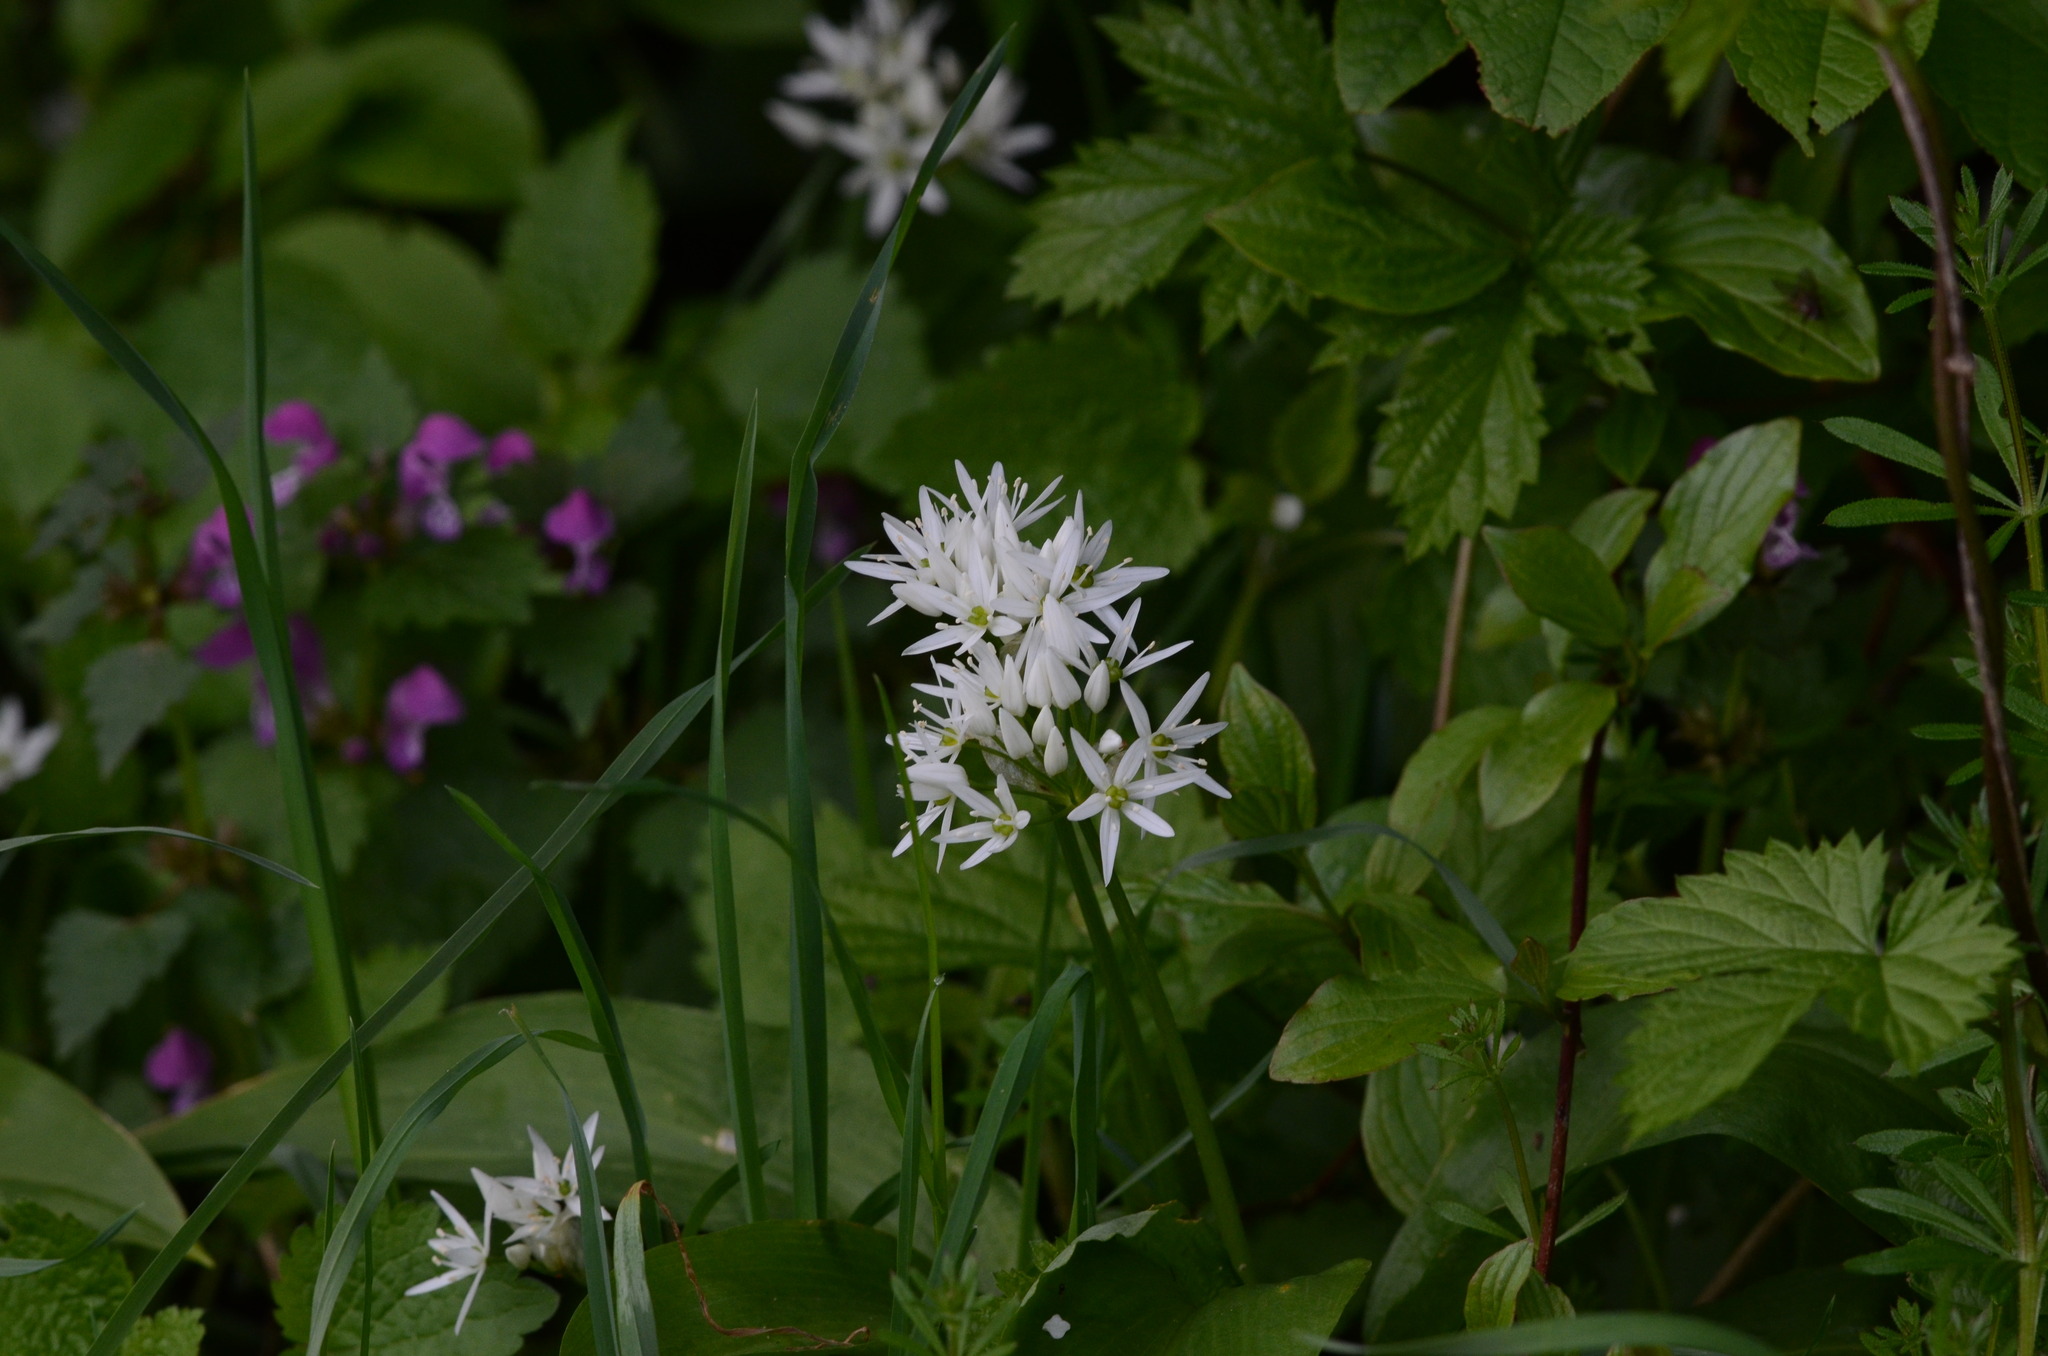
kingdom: Plantae
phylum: Tracheophyta
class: Liliopsida
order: Asparagales
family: Amaryllidaceae
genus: Allium
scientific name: Allium ursinum
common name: Ramsons
